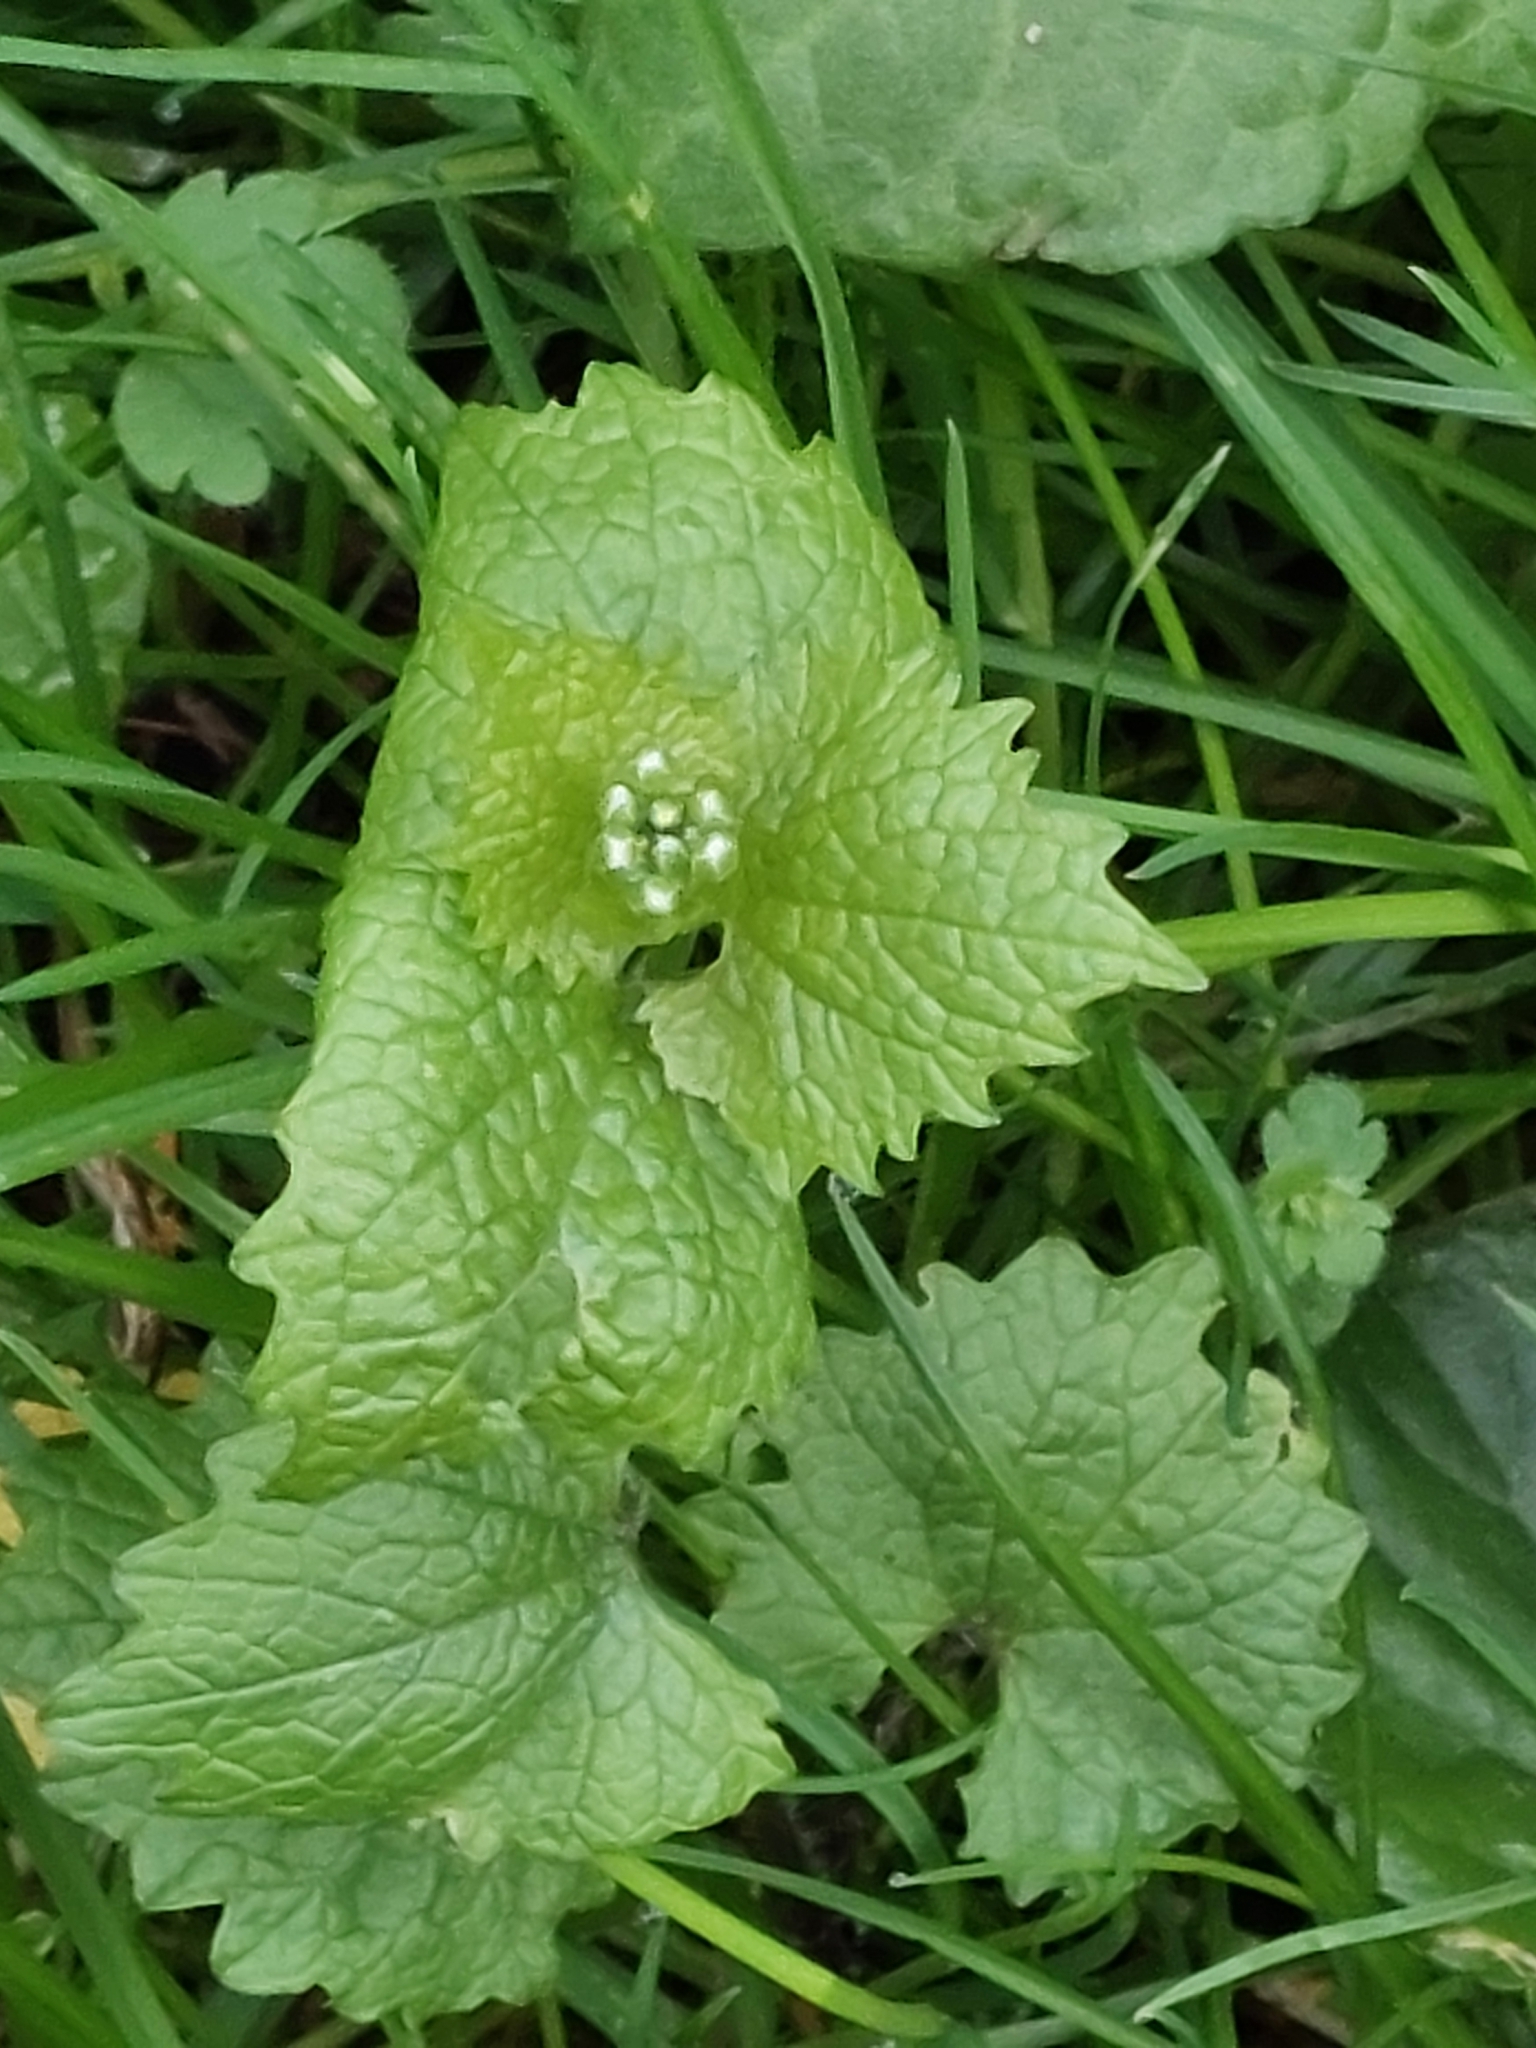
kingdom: Plantae
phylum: Tracheophyta
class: Magnoliopsida
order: Brassicales
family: Brassicaceae
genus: Alliaria
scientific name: Alliaria petiolata
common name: Garlic mustard
